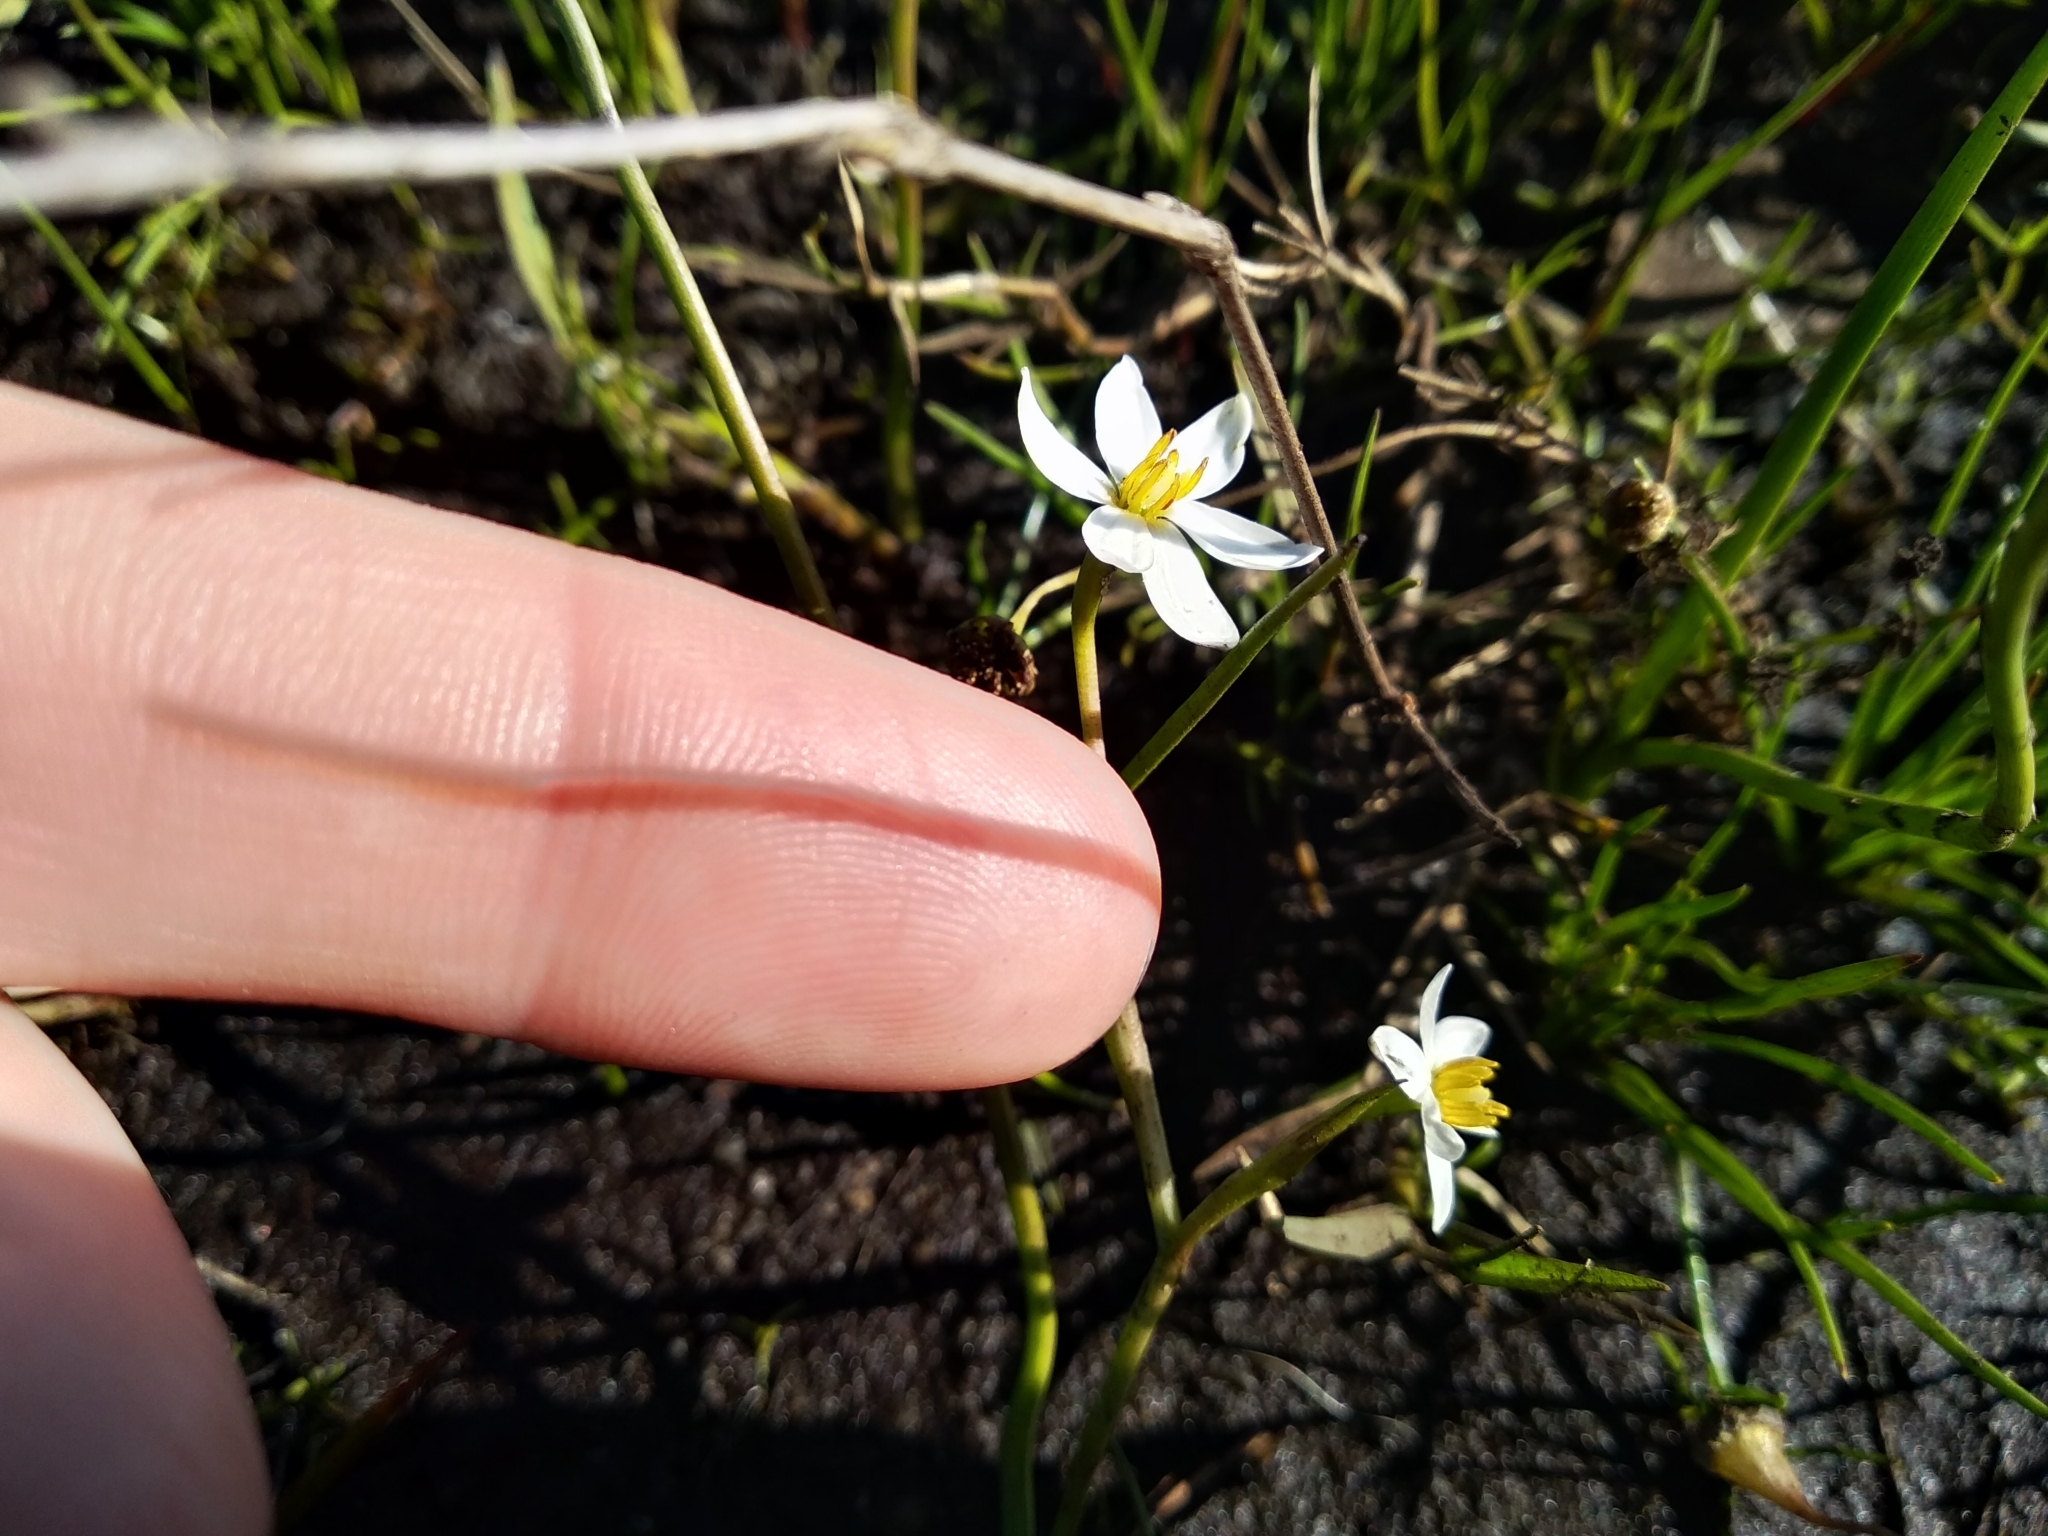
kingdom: Plantae
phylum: Tracheophyta
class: Liliopsida
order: Asparagales
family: Hypoxidaceae
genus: Pauridia
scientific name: Pauridia aquatica
